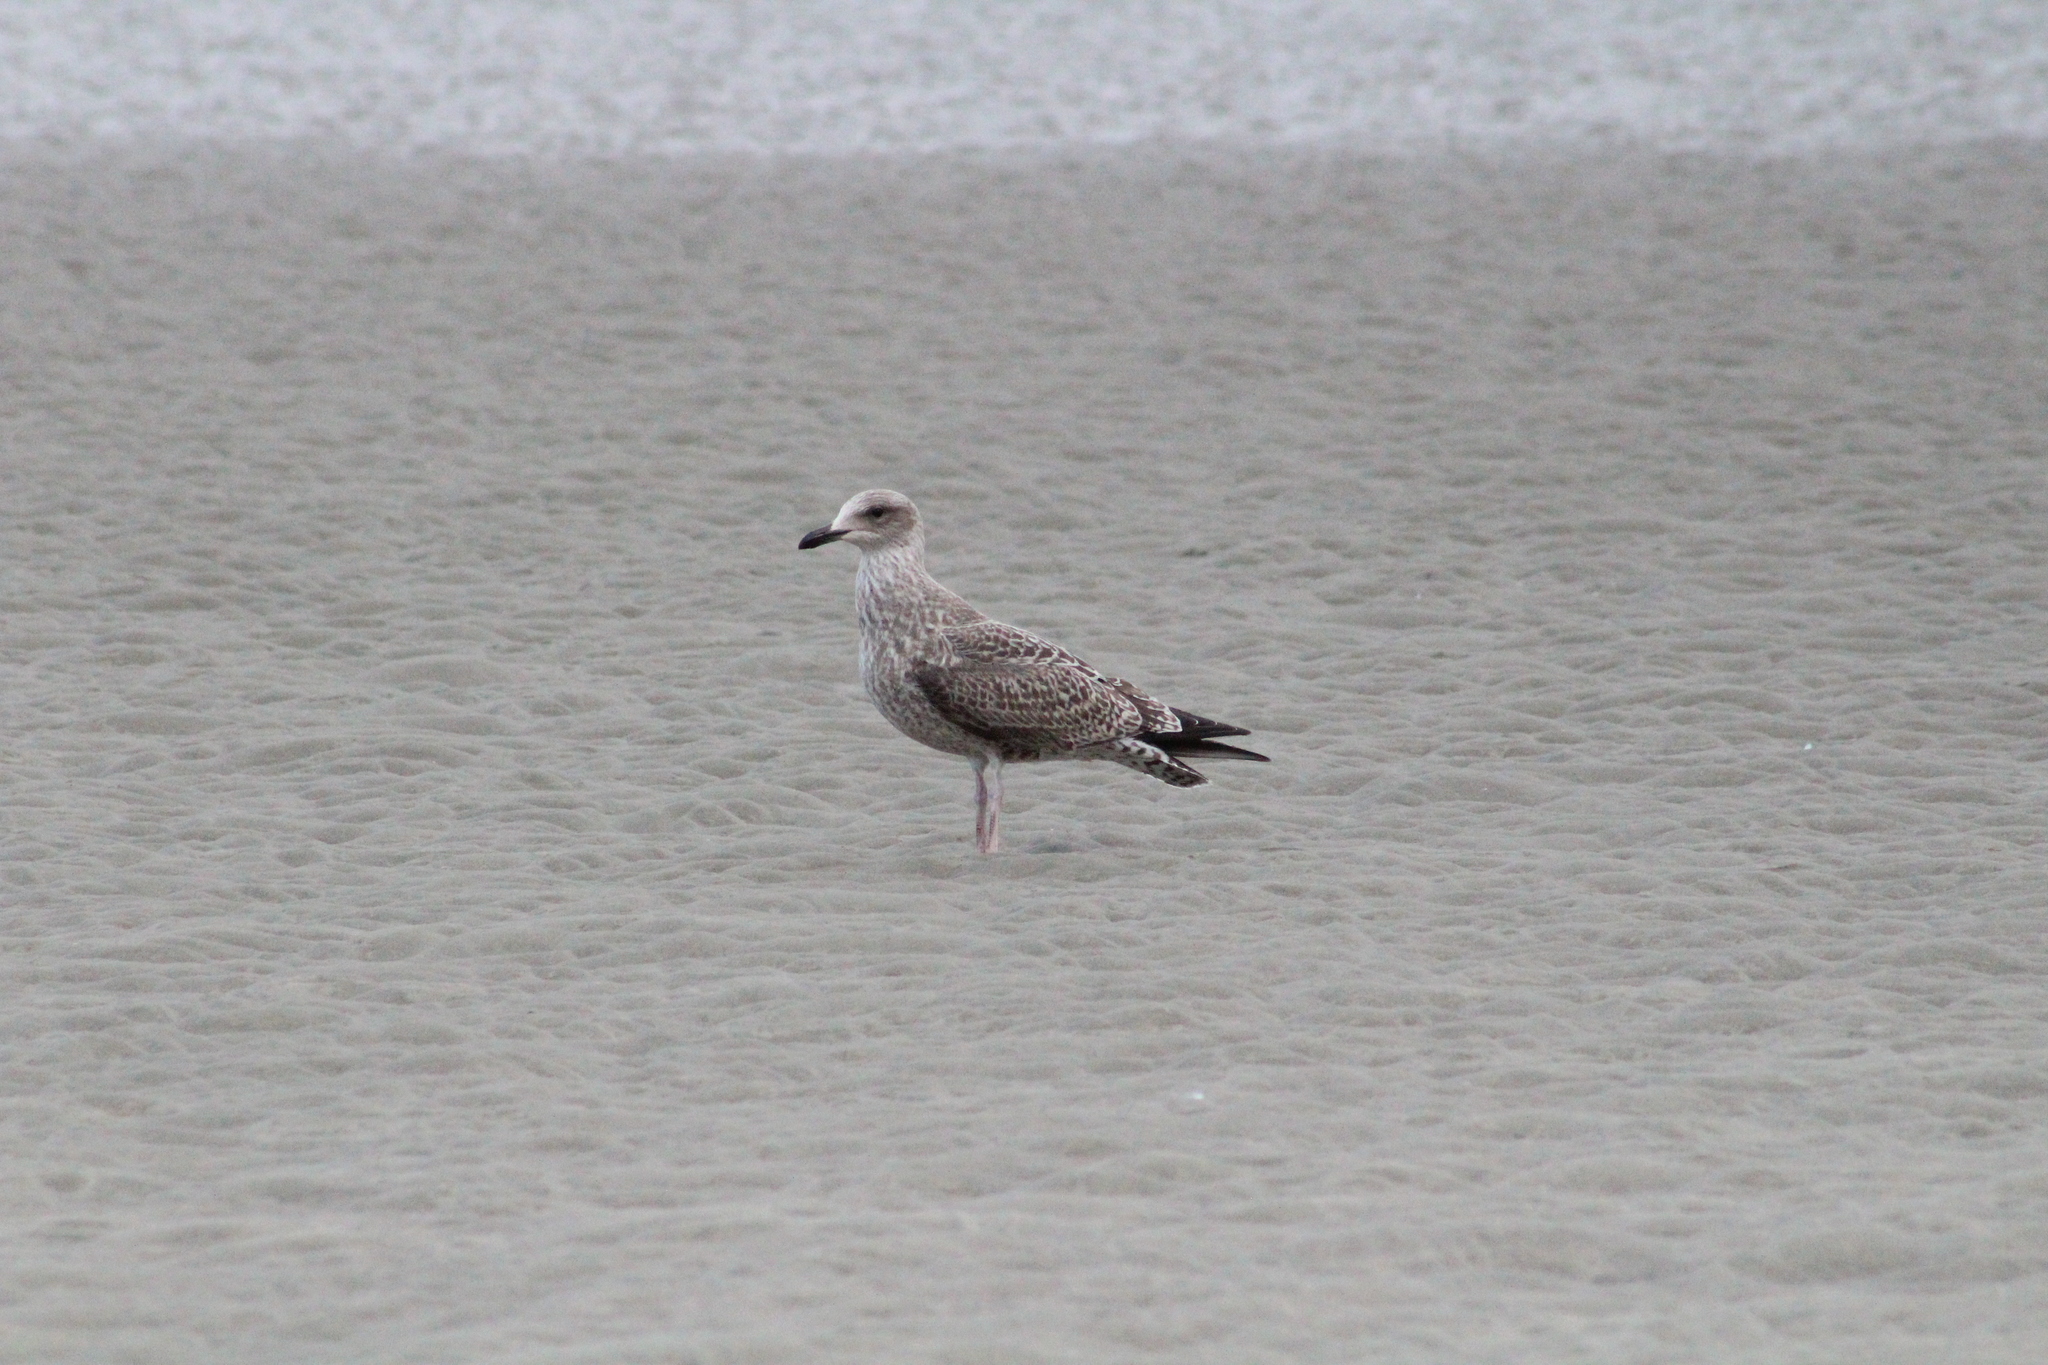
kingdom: Animalia
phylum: Chordata
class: Aves
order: Charadriiformes
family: Laridae
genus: Larus
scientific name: Larus argentatus
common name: Herring gull
